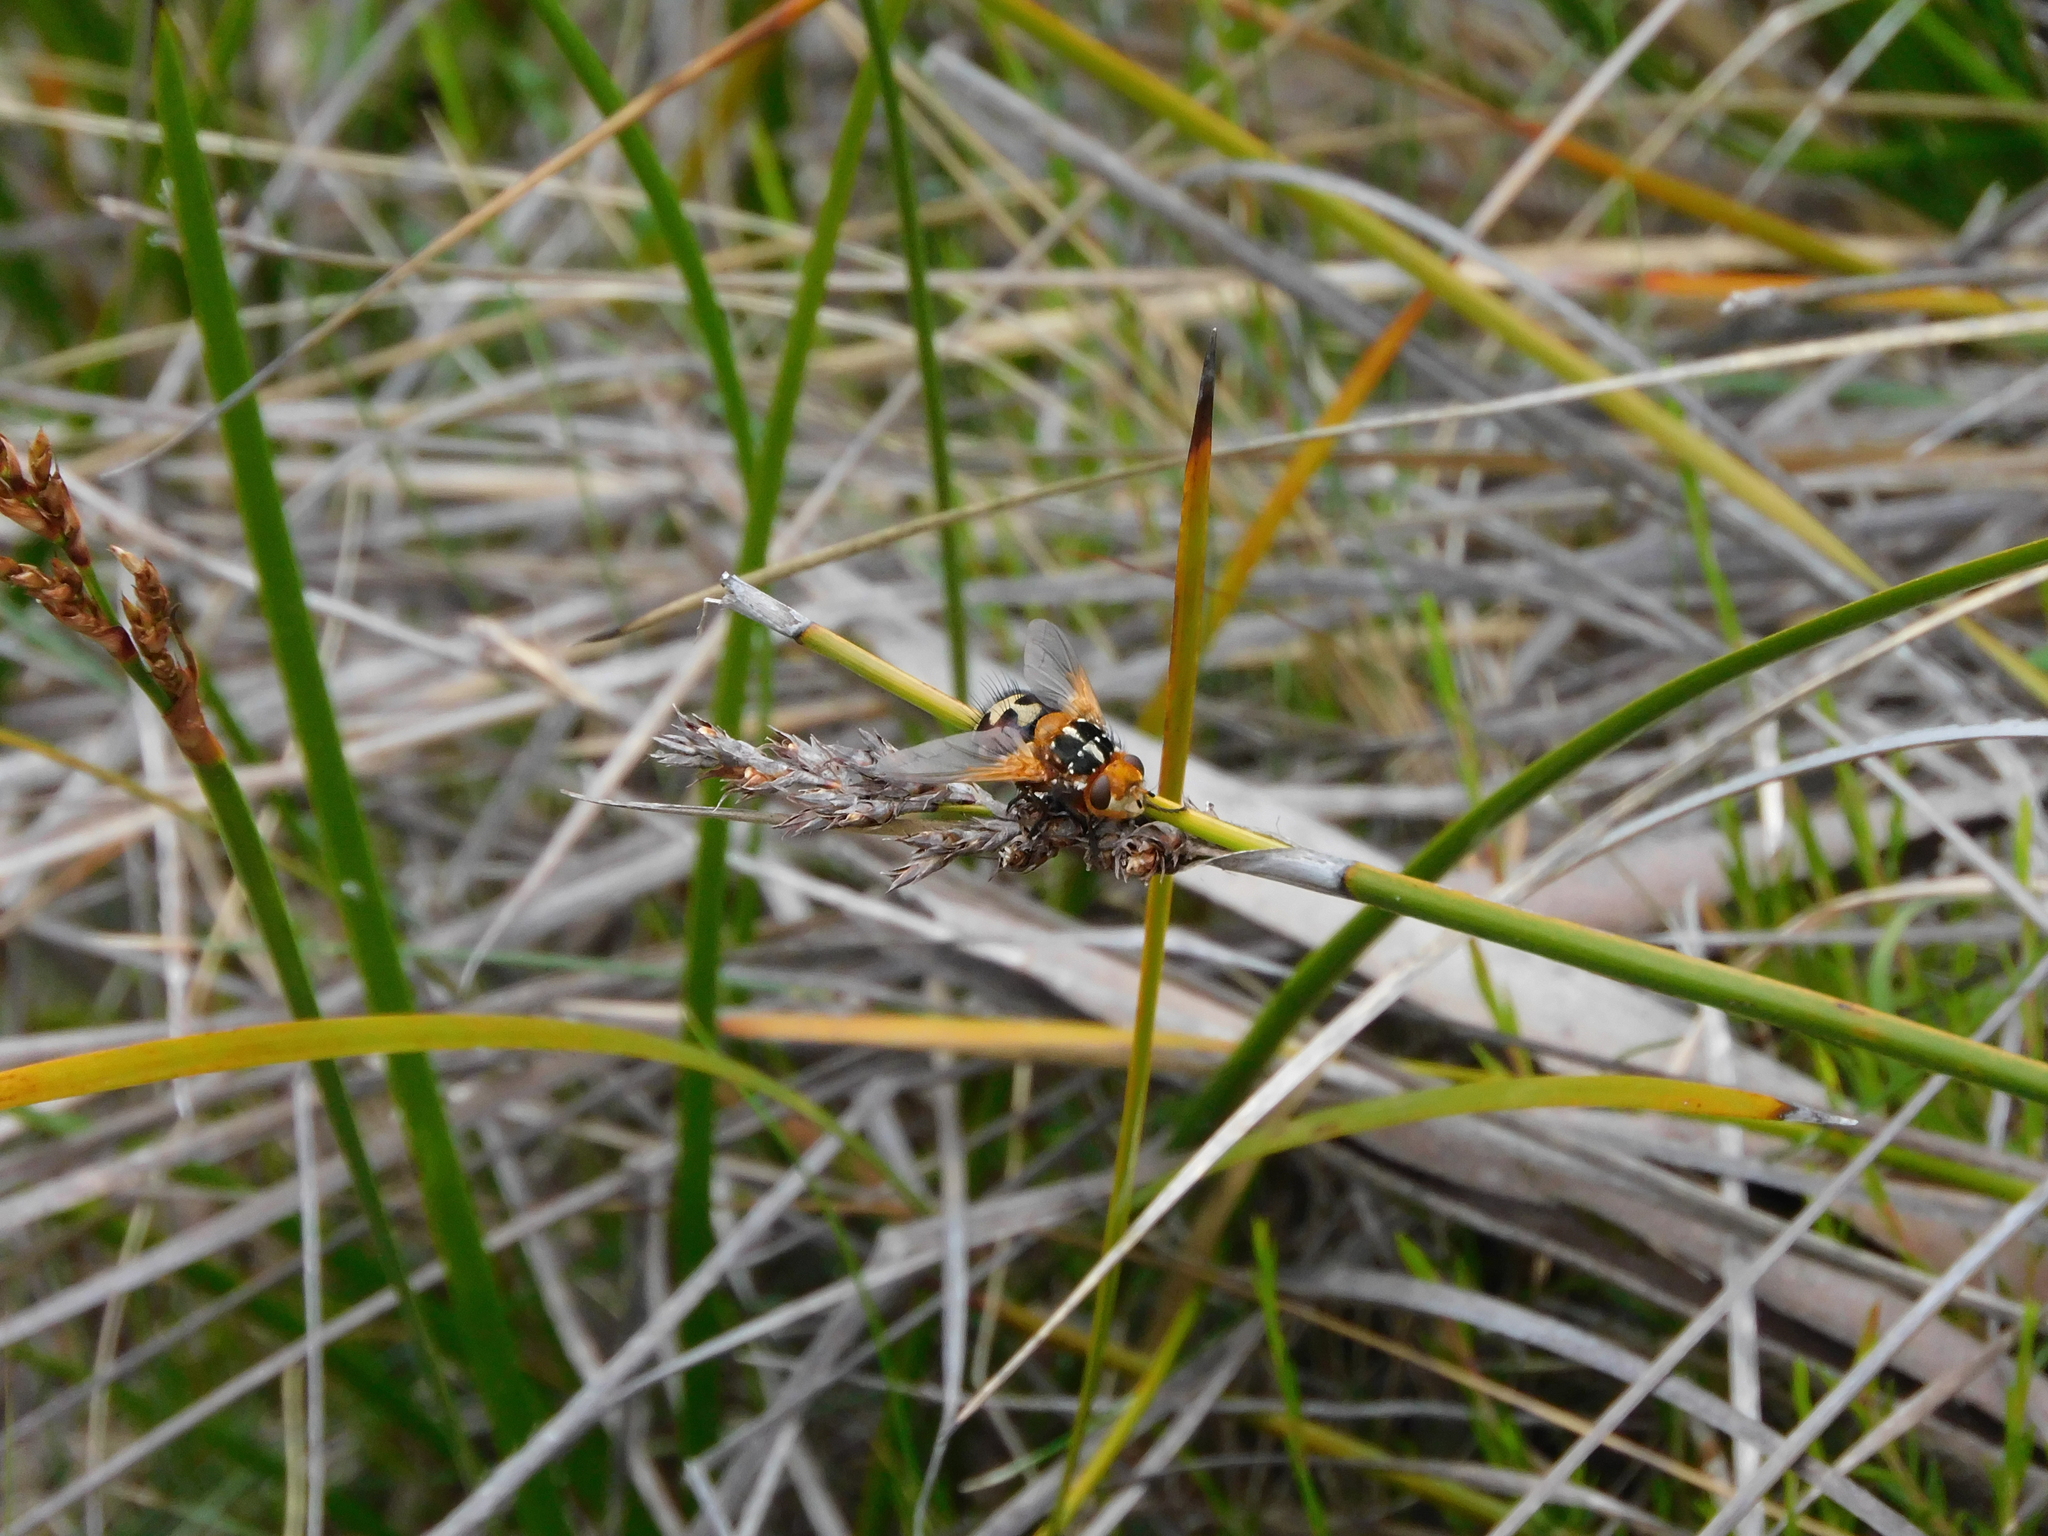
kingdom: Animalia
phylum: Arthropoda
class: Insecta
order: Diptera
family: Tachinidae
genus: Microtropesa
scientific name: Microtropesa nigricornis
